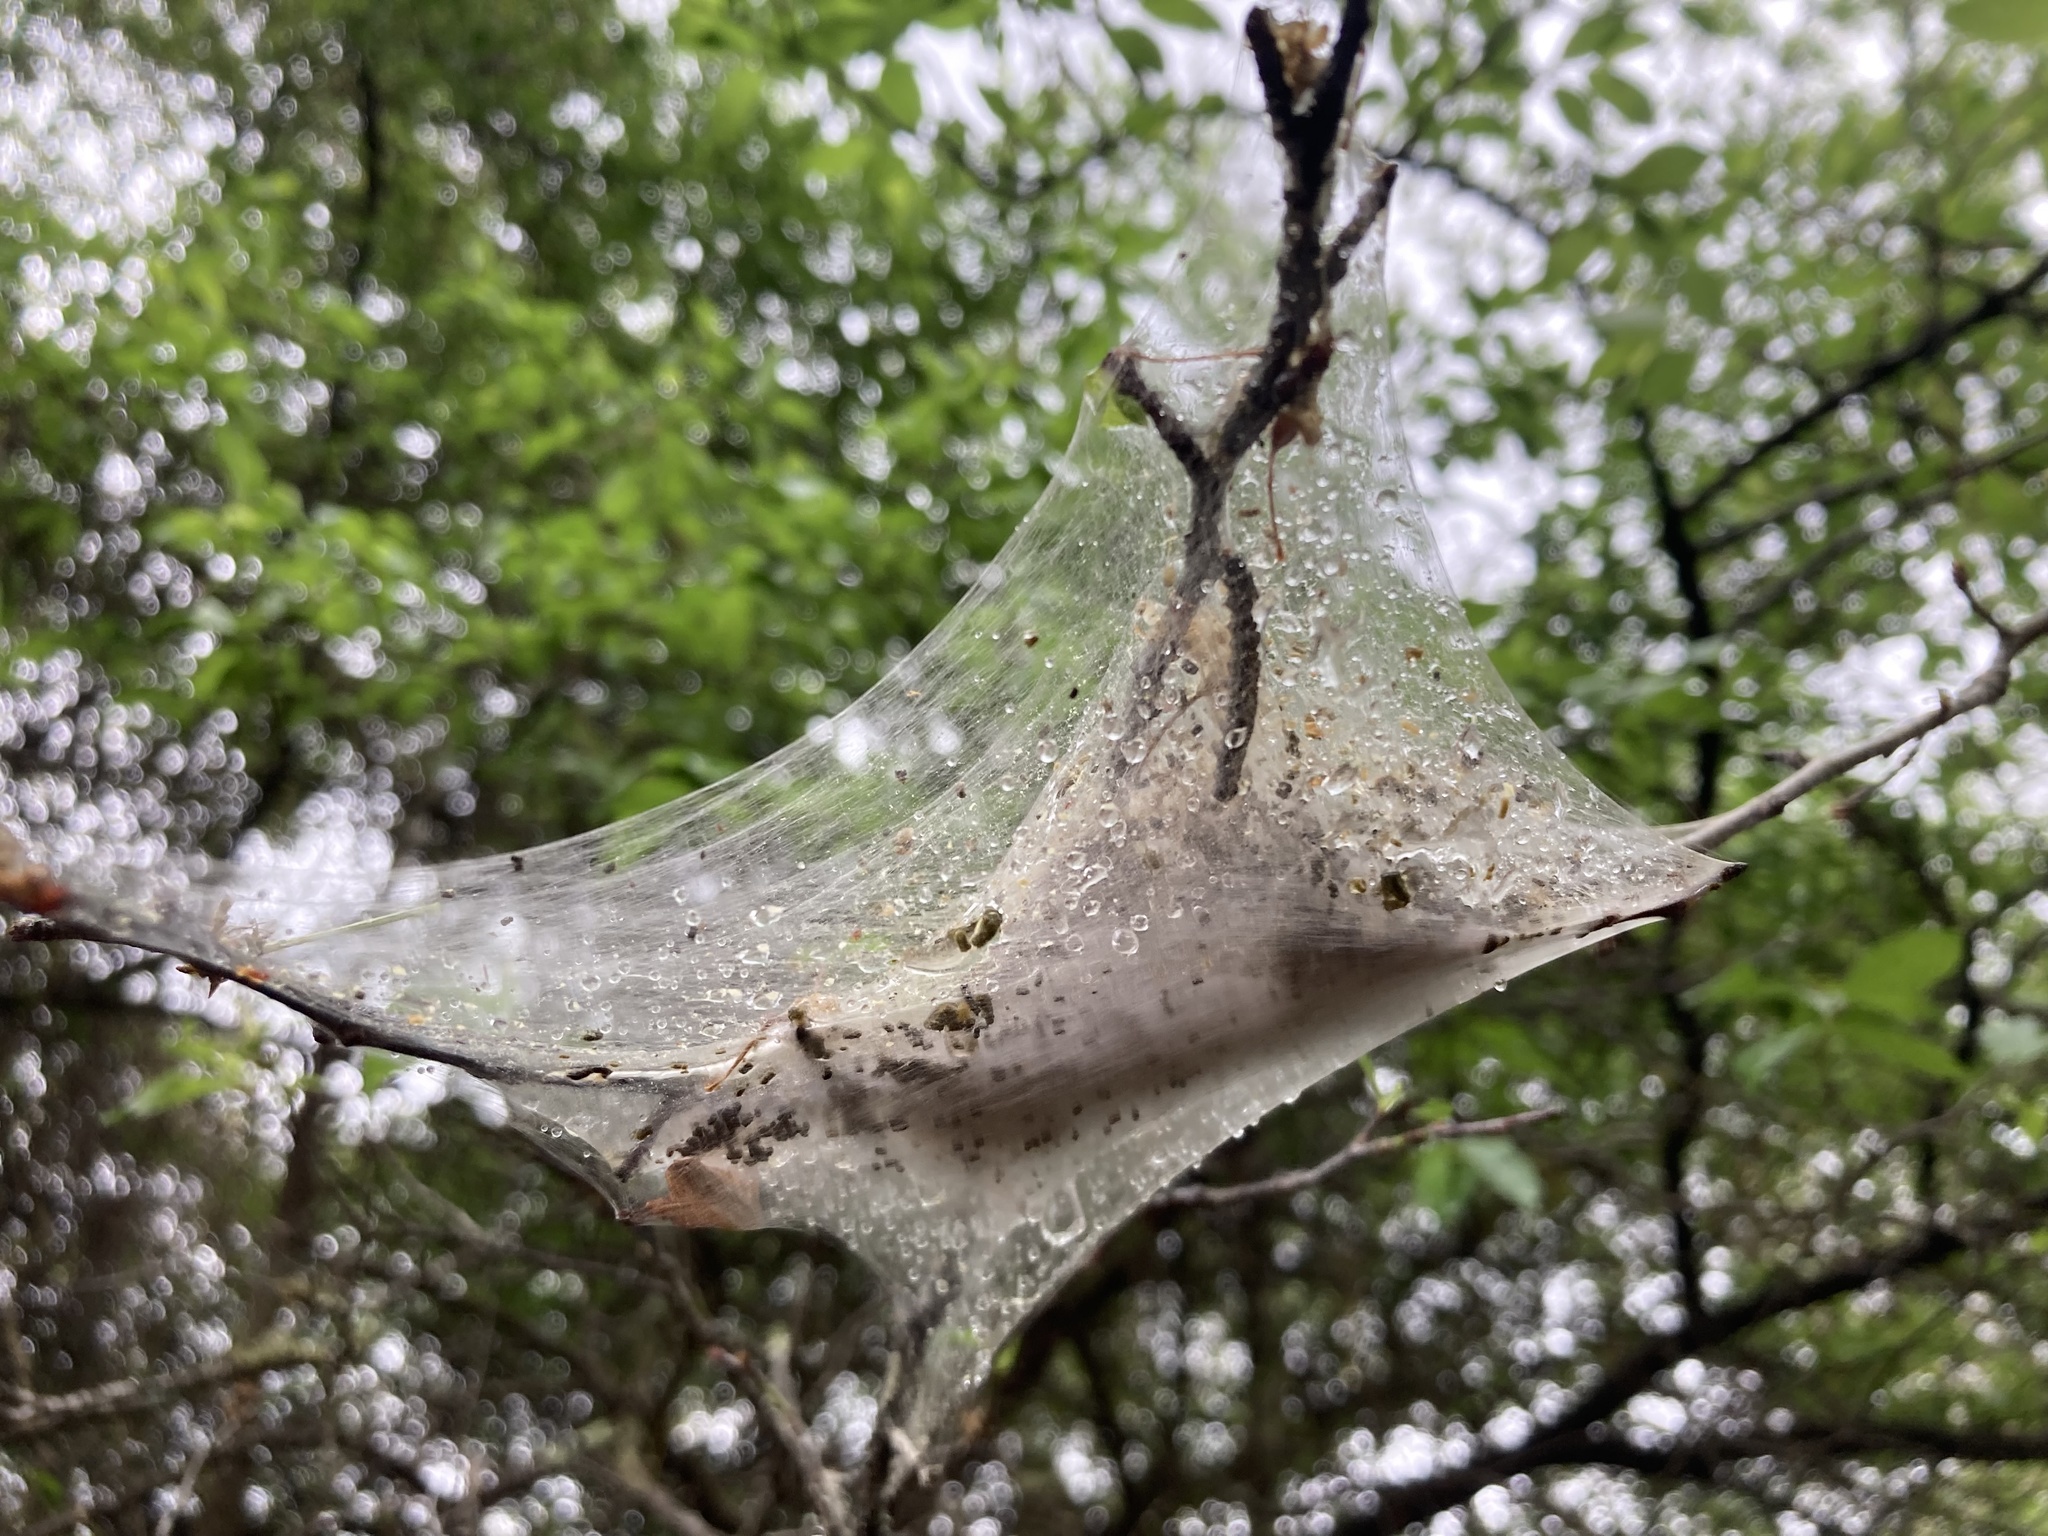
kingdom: Animalia
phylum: Arthropoda
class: Insecta
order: Lepidoptera
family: Lasiocampidae
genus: Malacosoma
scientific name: Malacosoma americana
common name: Eastern tent caterpillar moth
